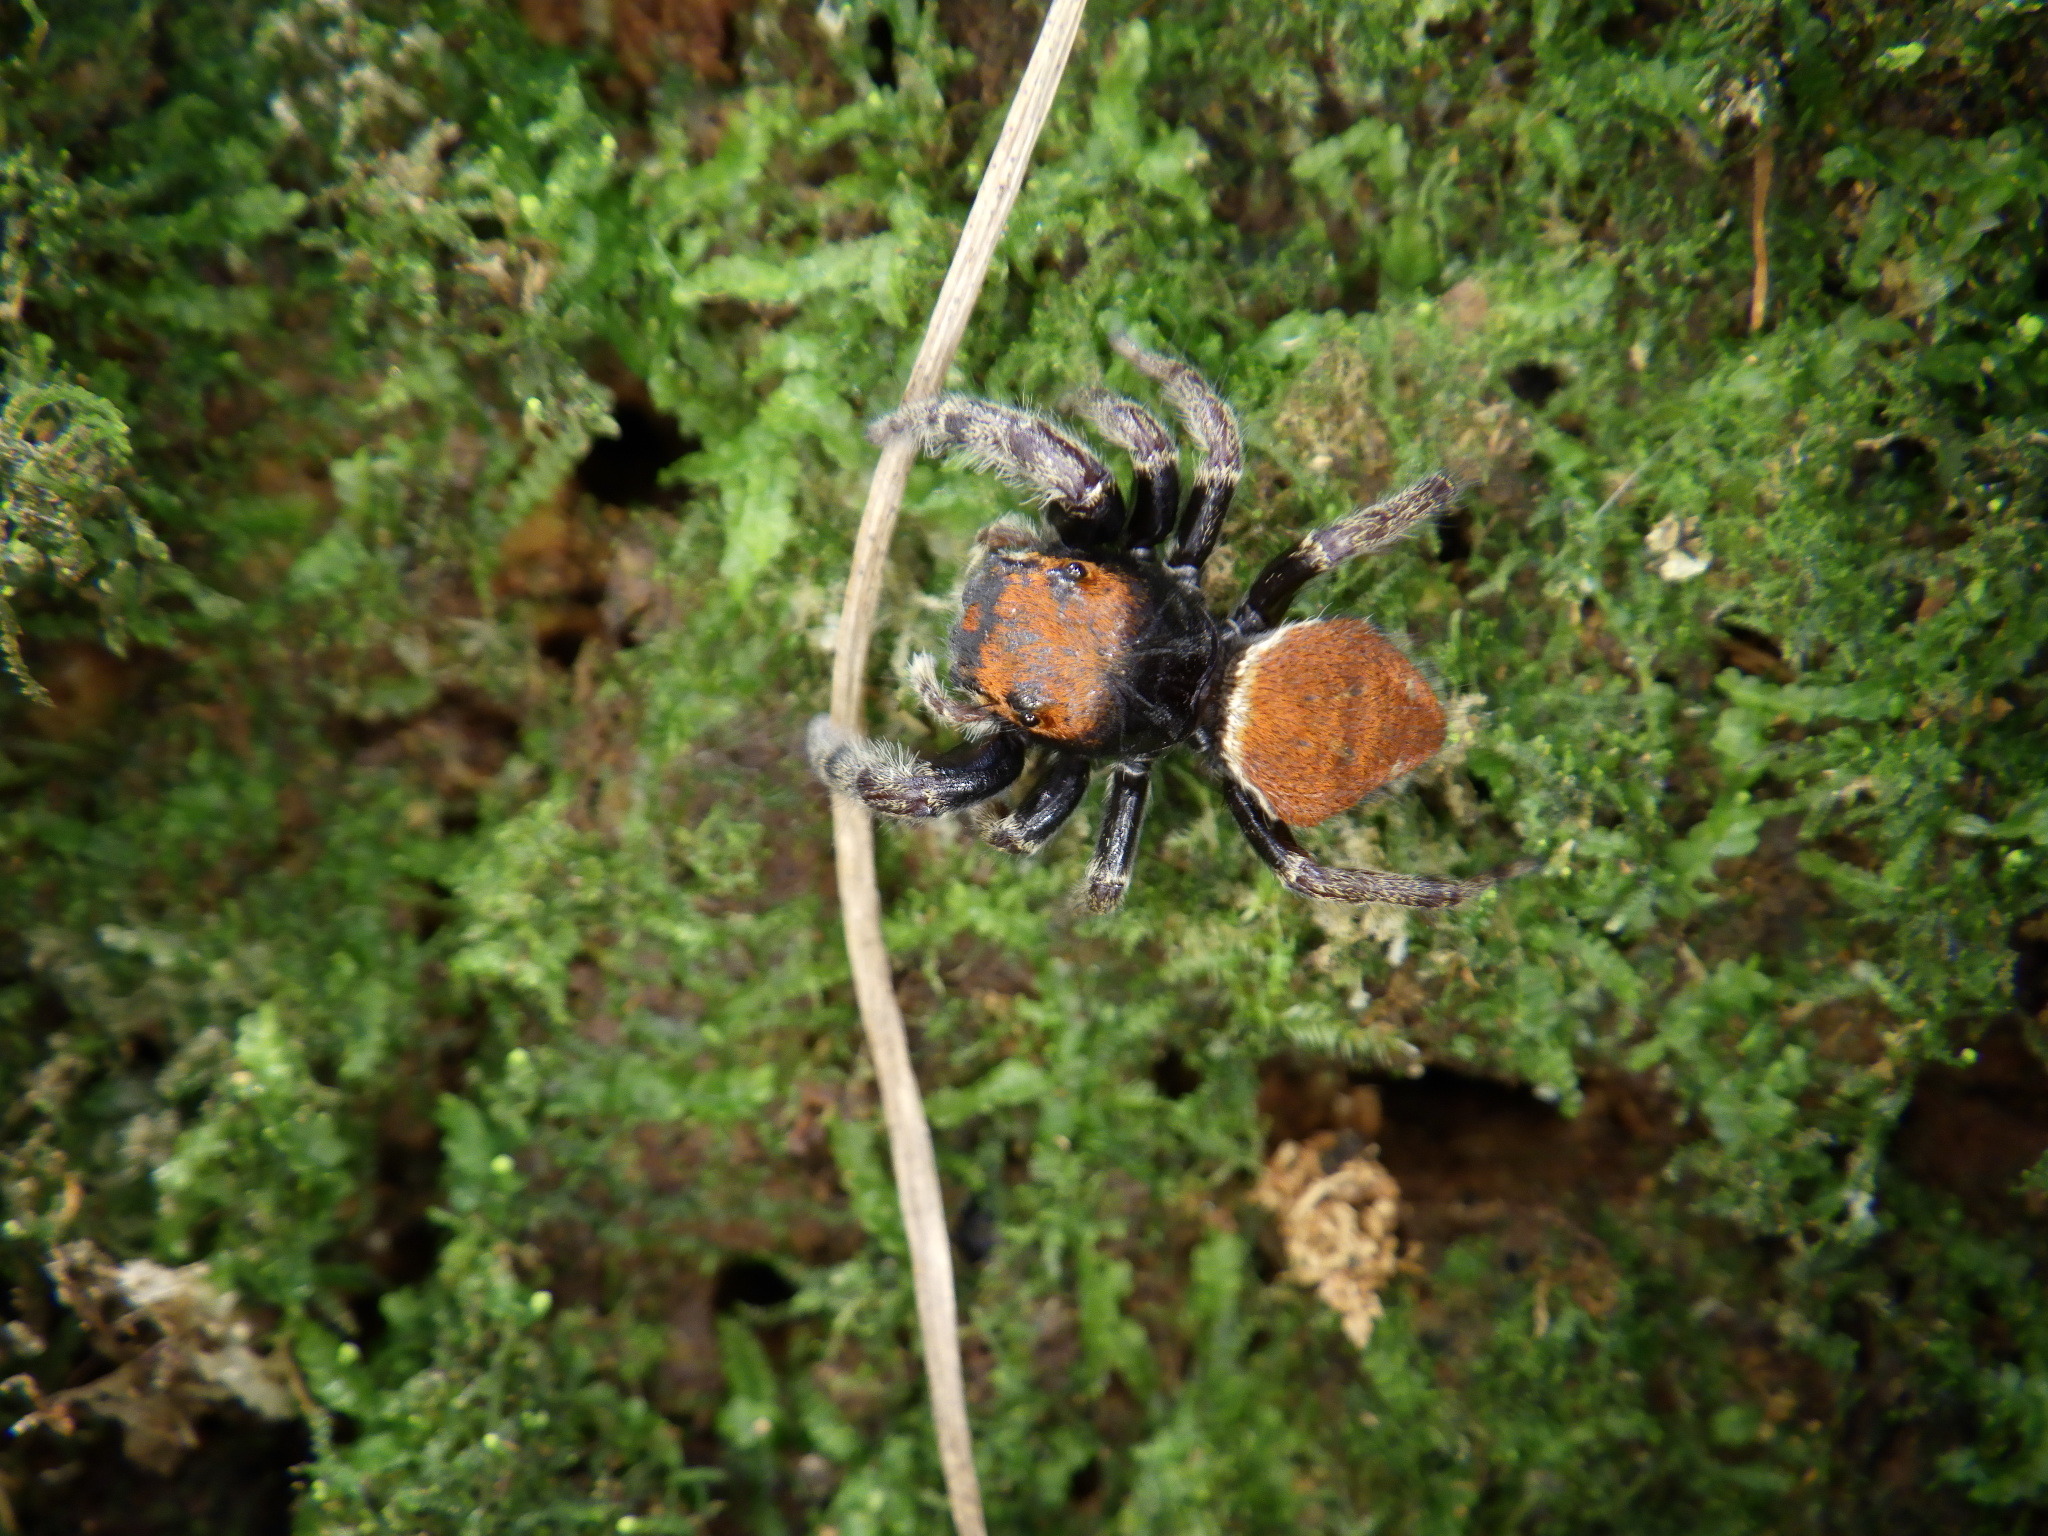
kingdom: Animalia
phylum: Arthropoda
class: Arachnida
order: Araneae
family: Salticidae
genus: Phidippus
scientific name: Phidippus whitmani
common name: Whitman's jumping spider
